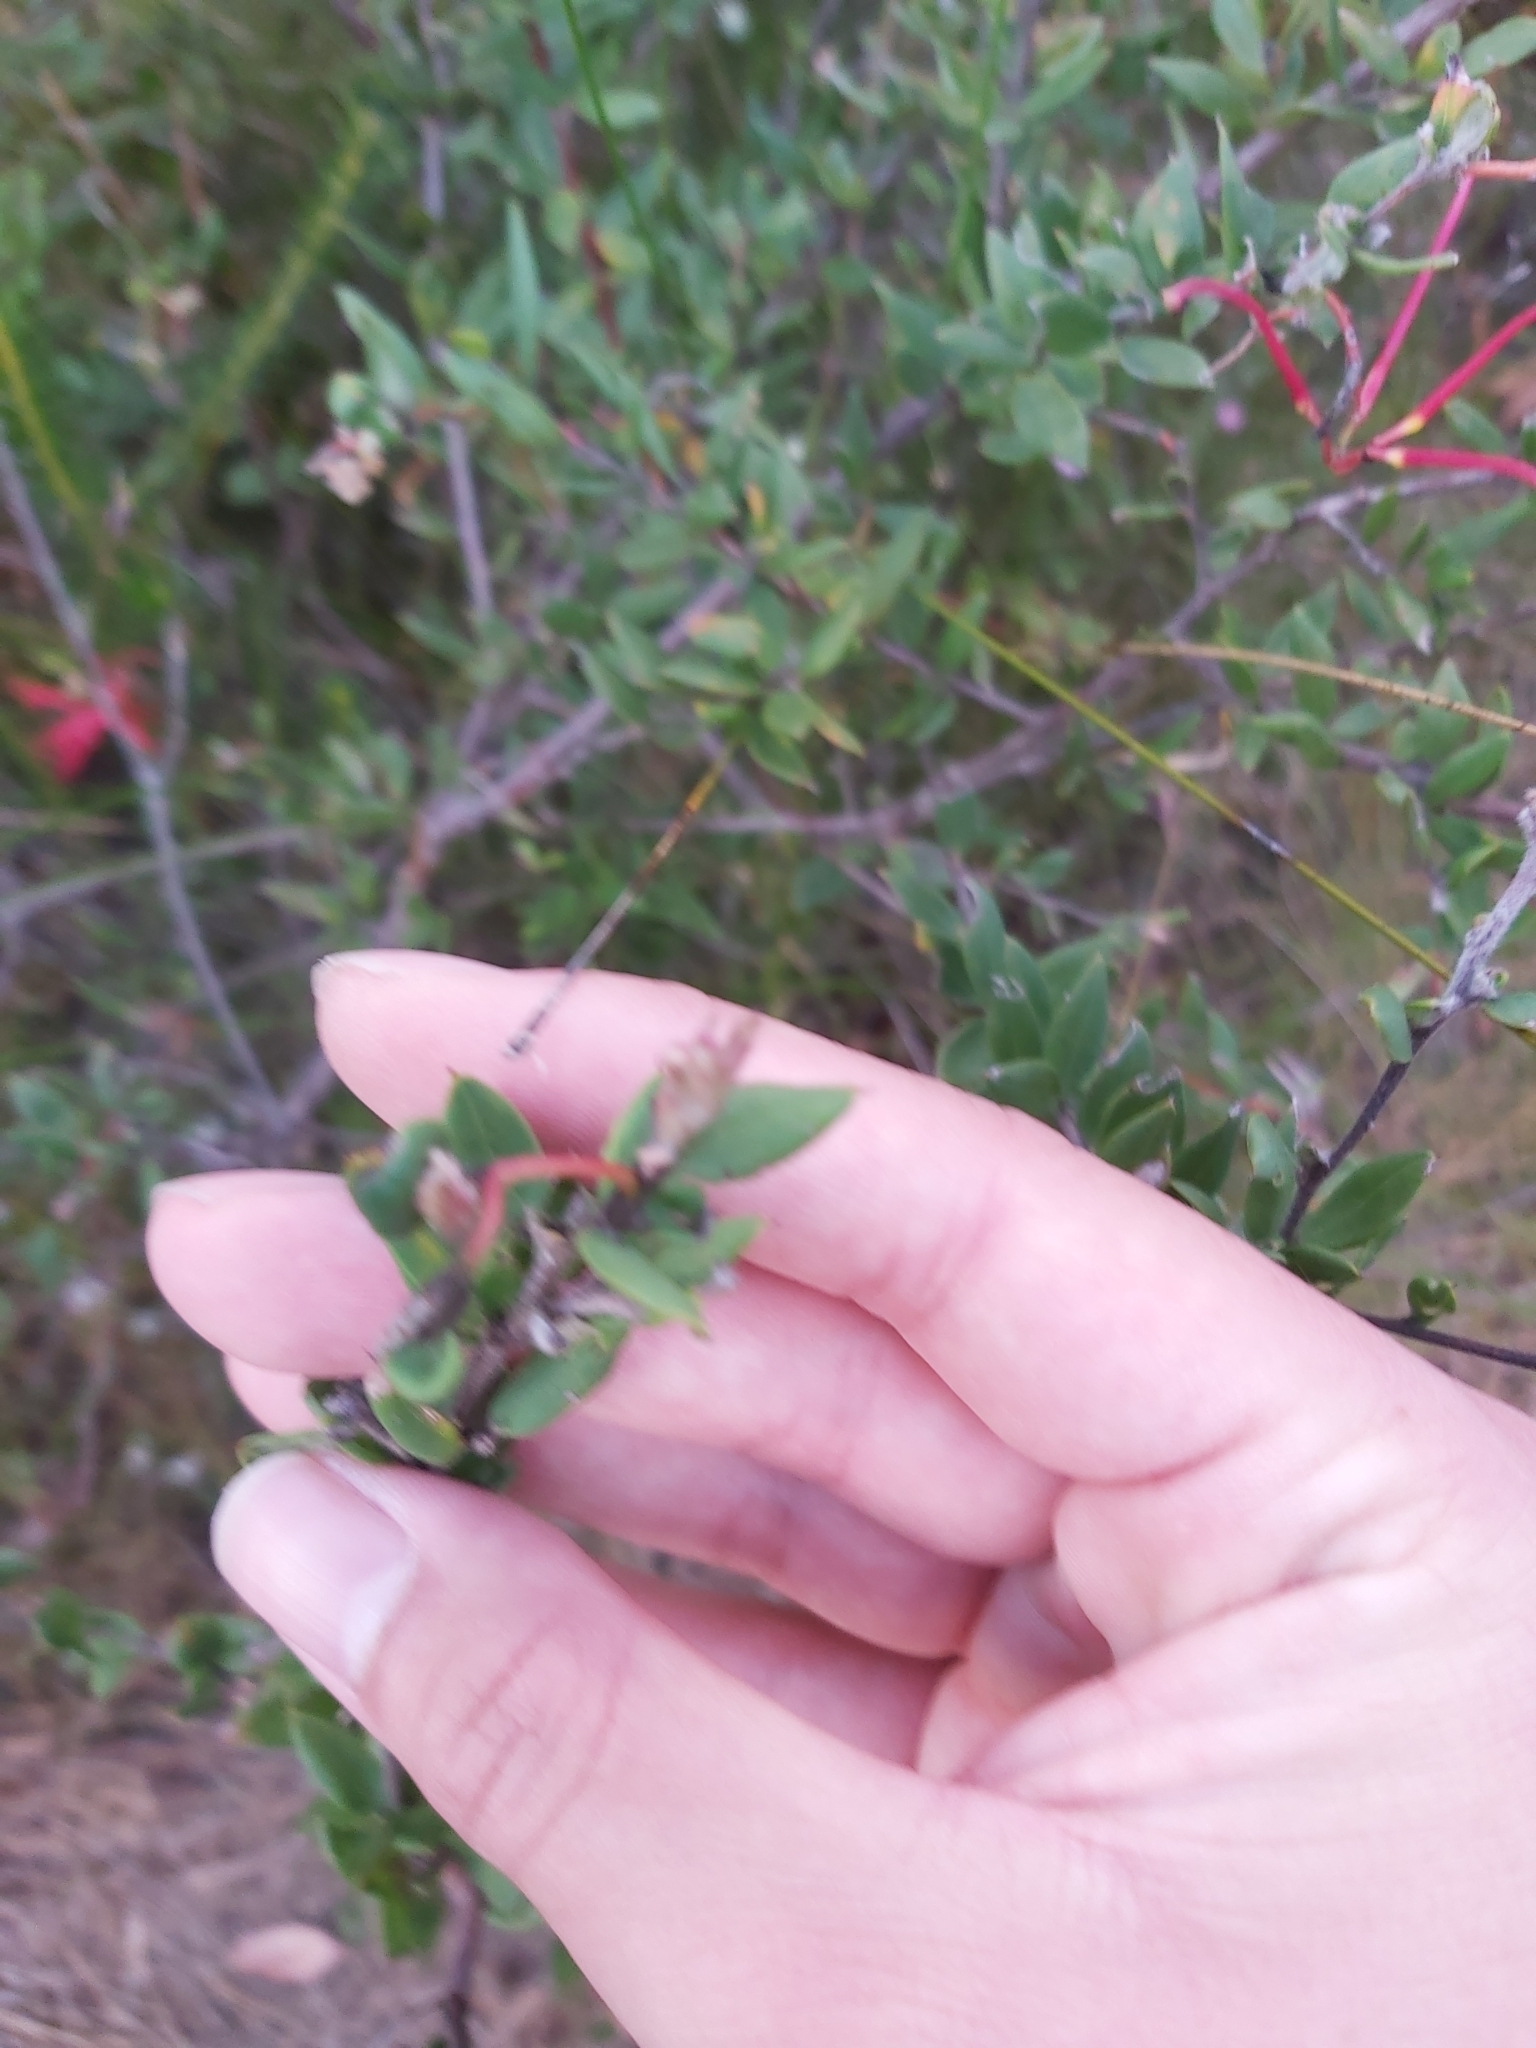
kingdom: Plantae
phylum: Tracheophyta
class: Magnoliopsida
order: Proteales
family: Proteaceae
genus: Grevillea
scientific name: Grevillea speciosa
